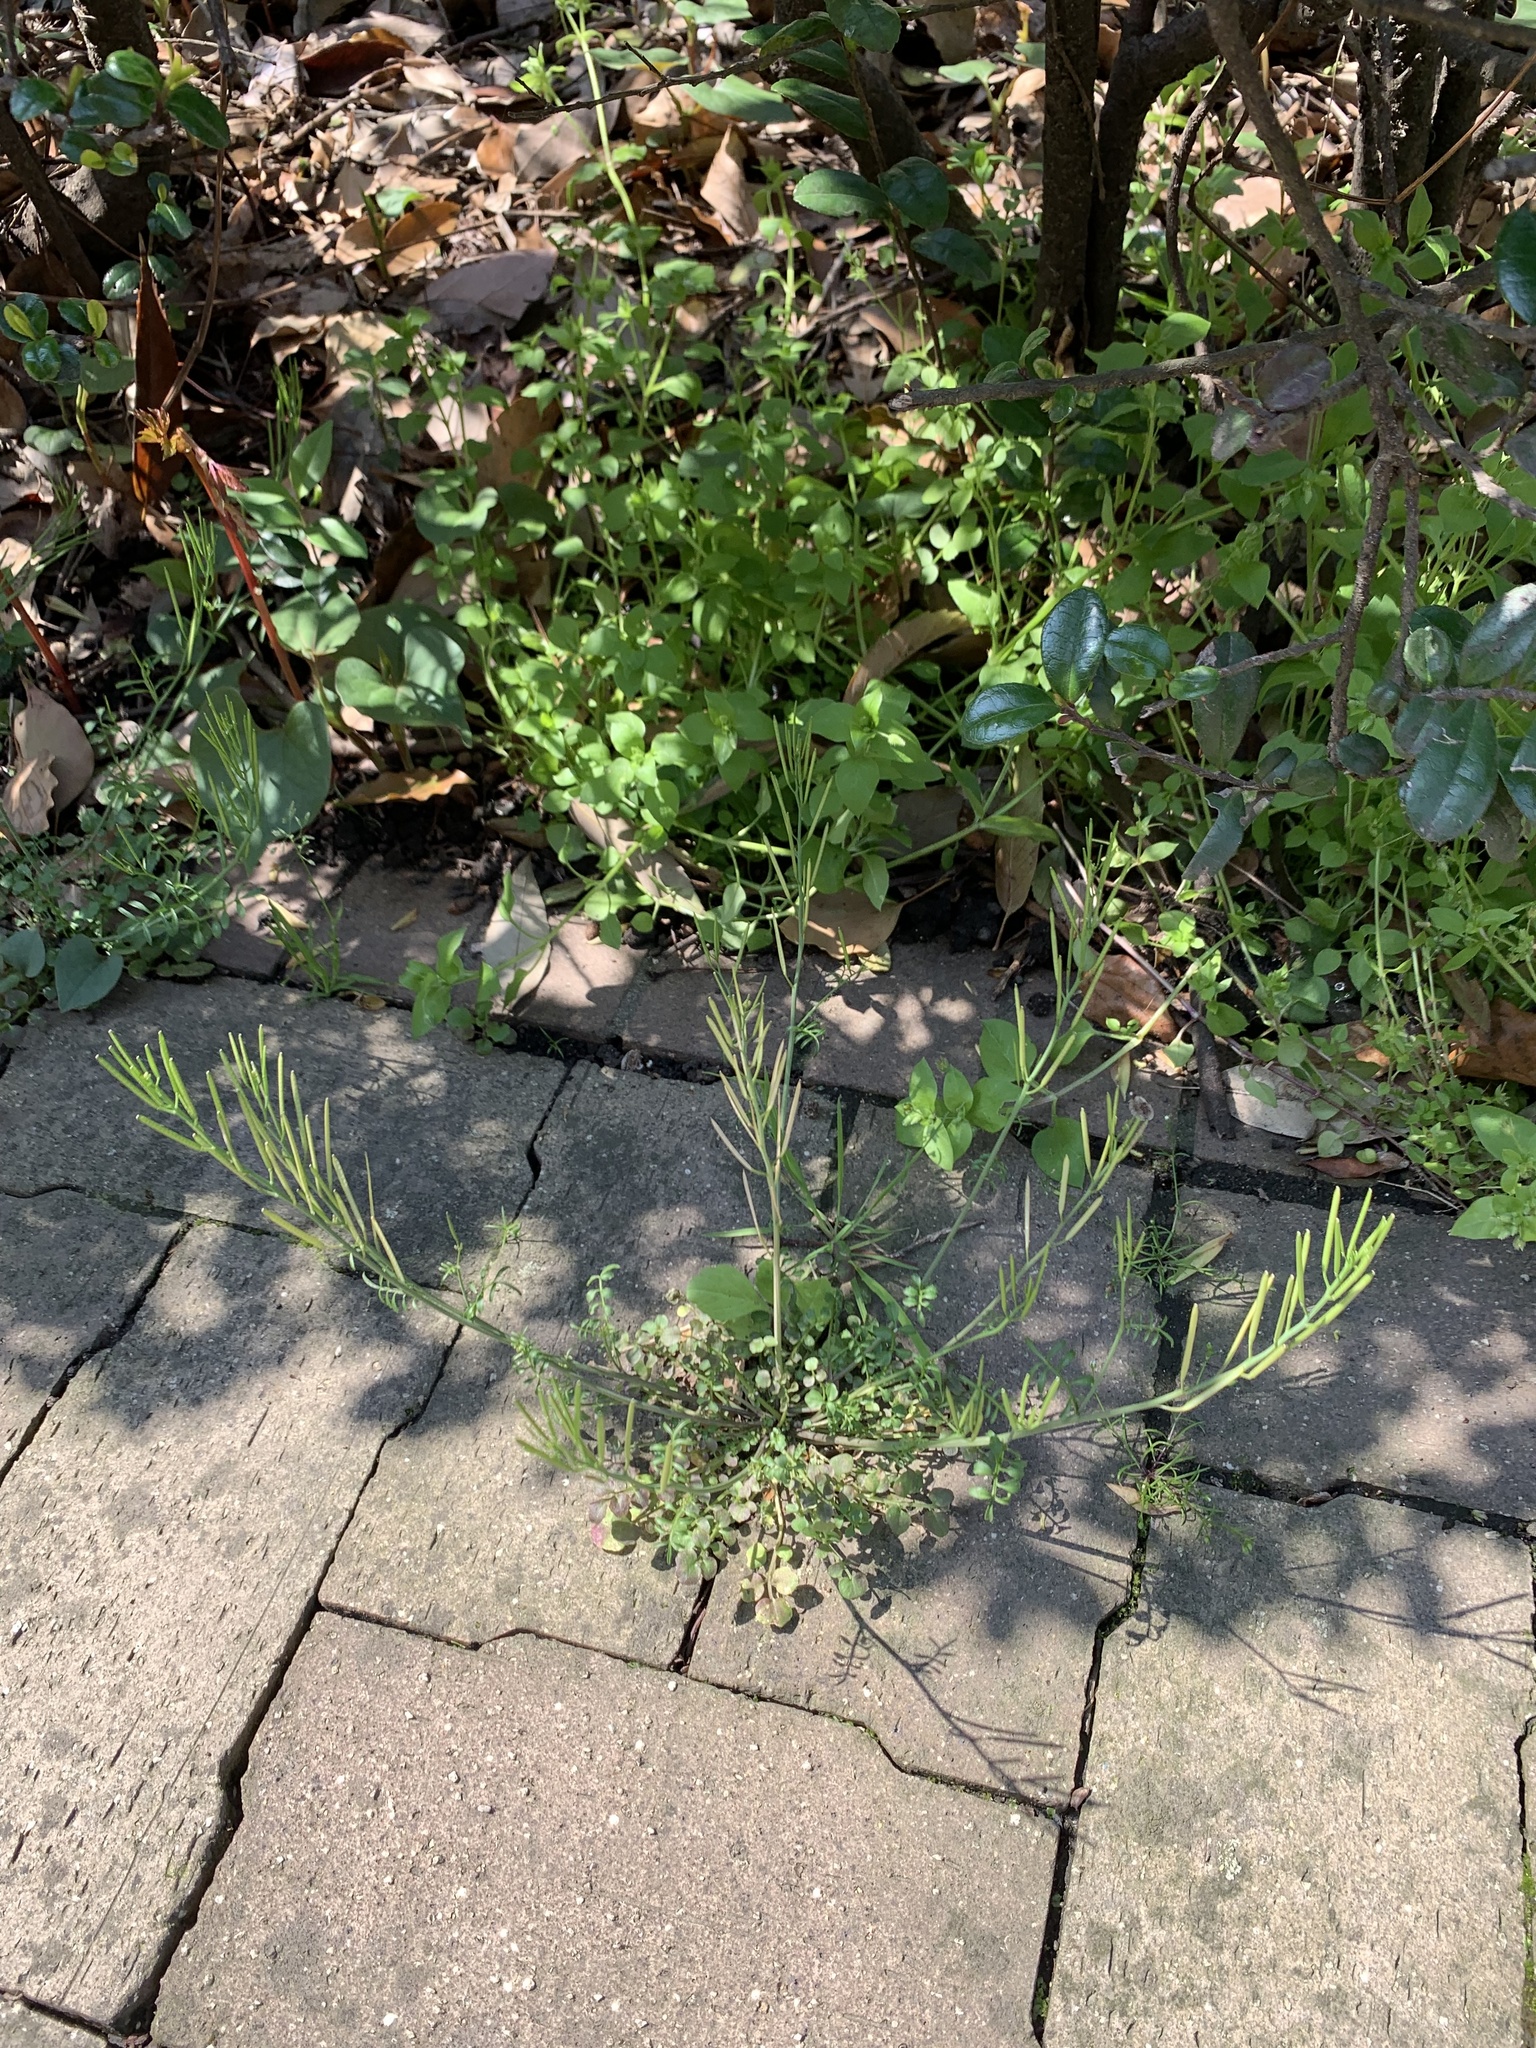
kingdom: Plantae
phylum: Tracheophyta
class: Magnoliopsida
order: Brassicales
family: Brassicaceae
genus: Cardamine
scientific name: Cardamine hirsuta
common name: Hairy bittercress
